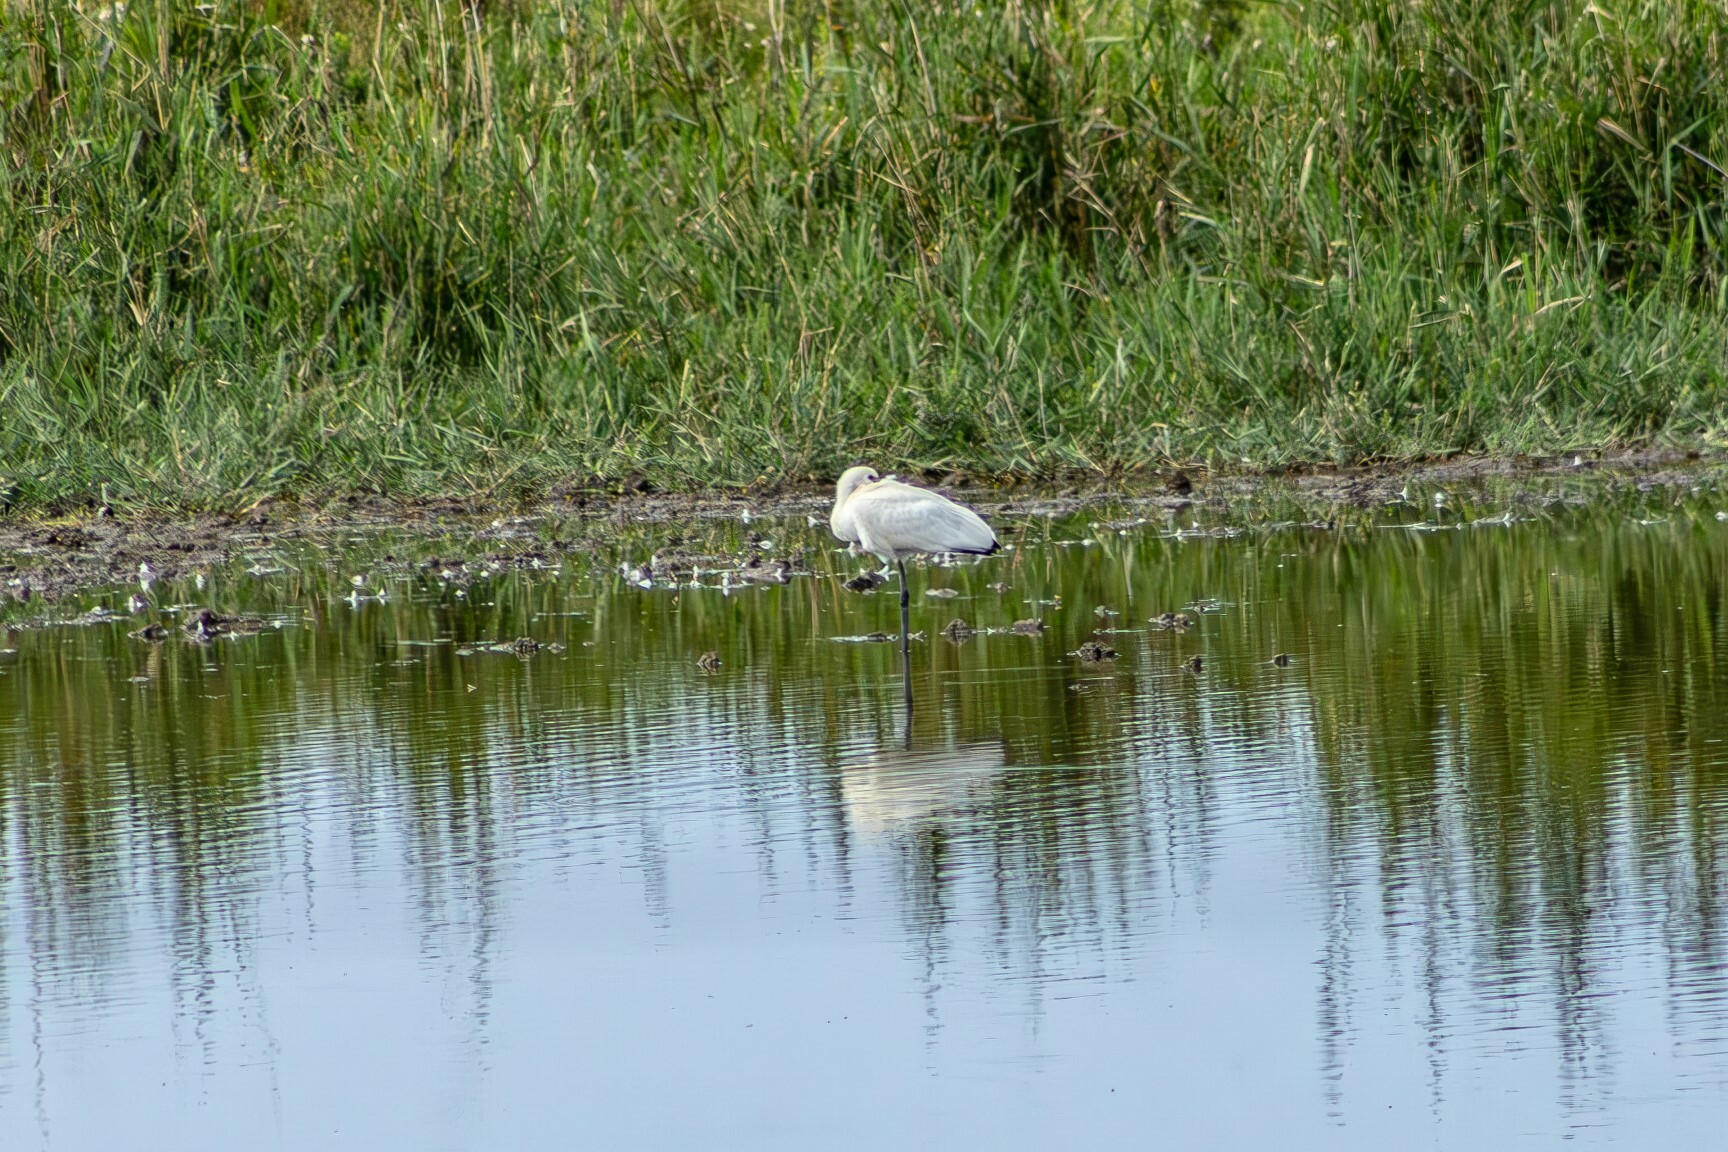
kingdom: Animalia
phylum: Chordata
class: Aves
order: Pelecaniformes
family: Threskiornithidae
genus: Platalea
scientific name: Platalea leucorodia
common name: Eurasian spoonbill
